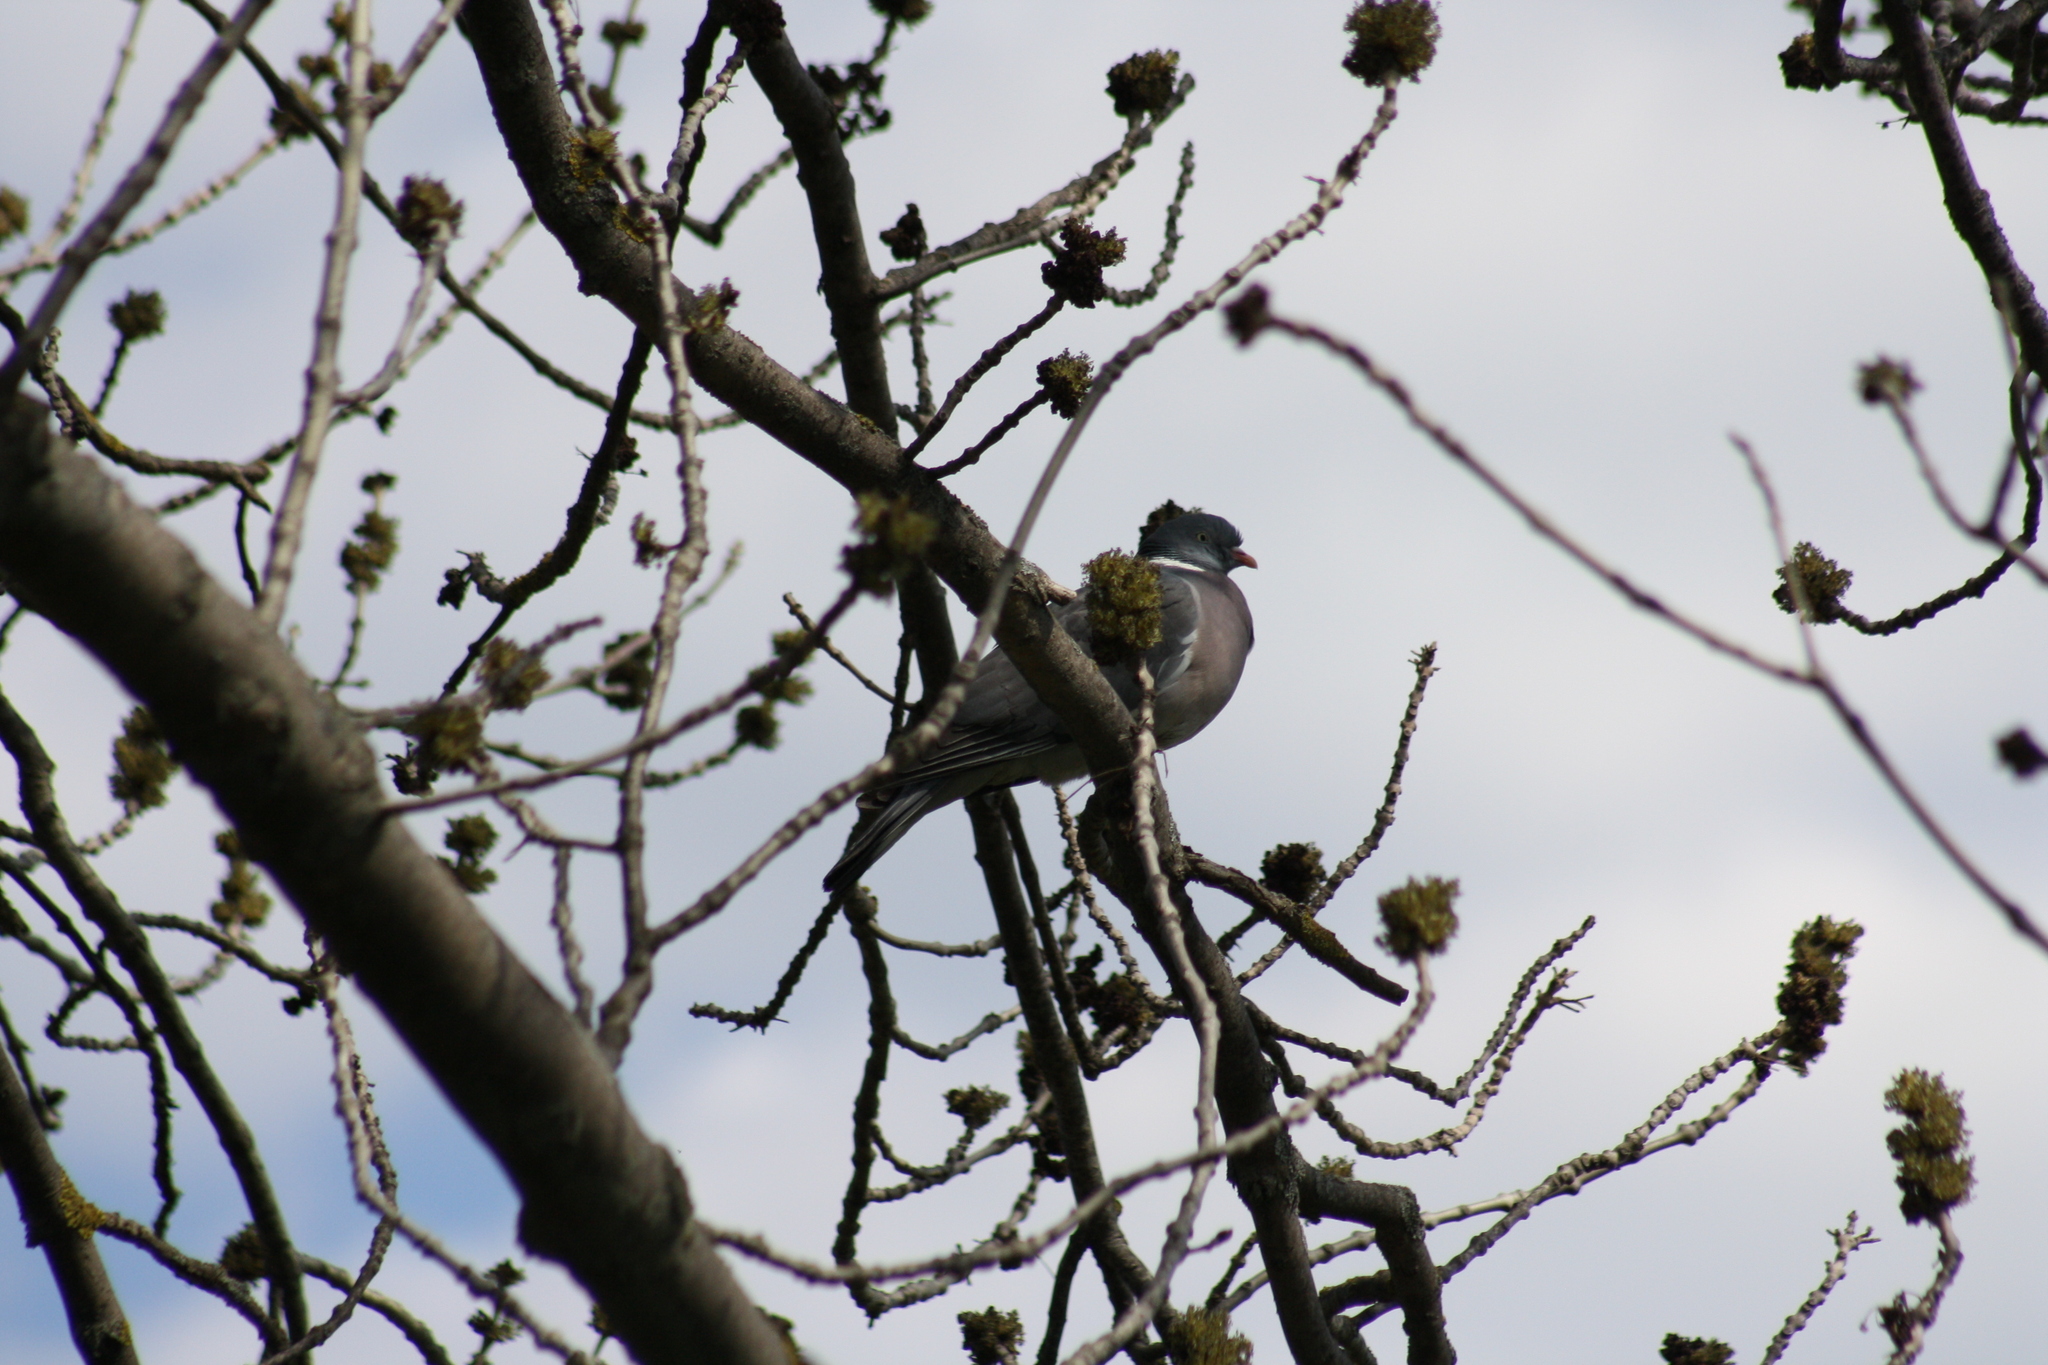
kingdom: Animalia
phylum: Chordata
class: Aves
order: Columbiformes
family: Columbidae
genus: Columba
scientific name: Columba palumbus
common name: Common wood pigeon
